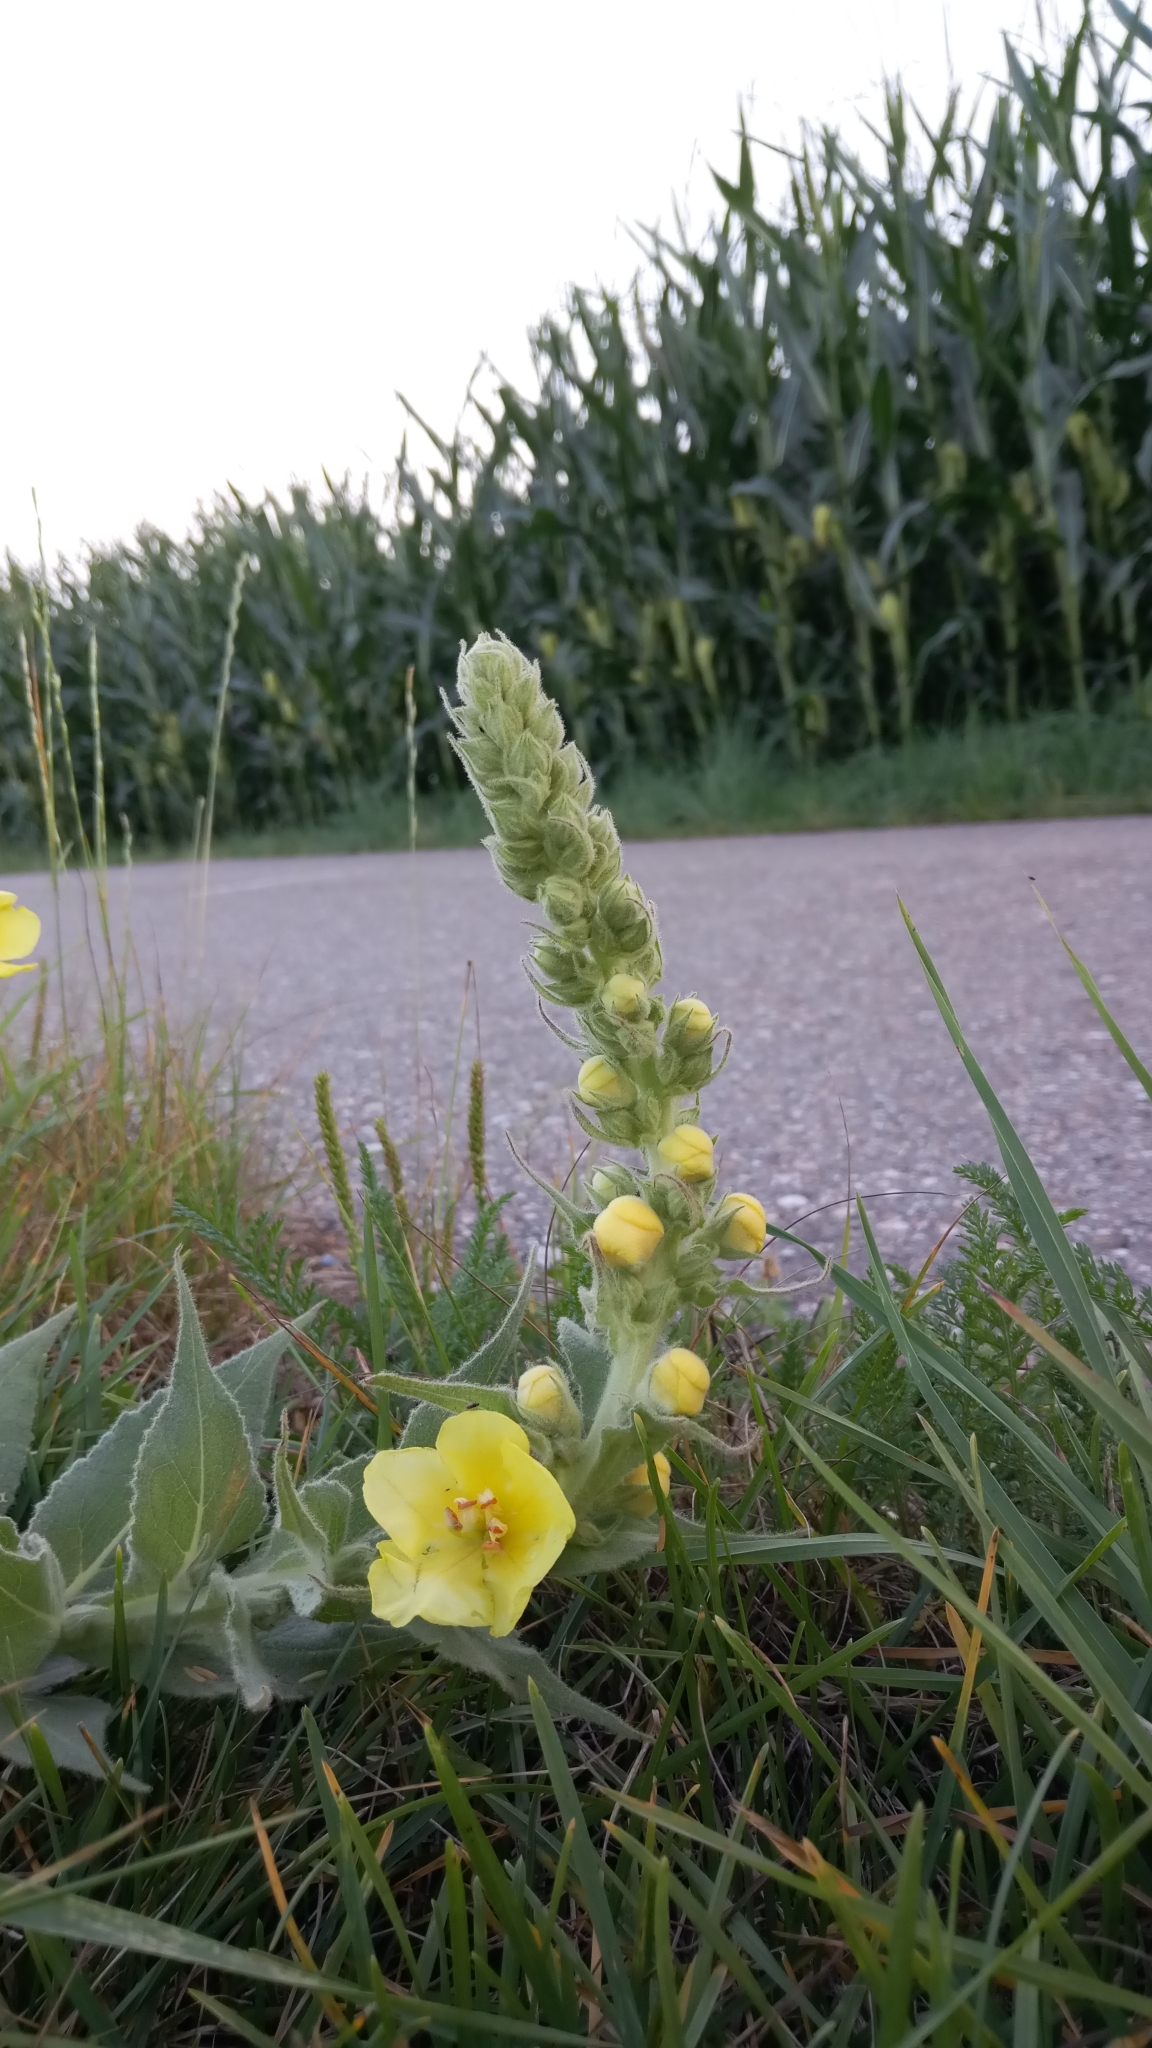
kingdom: Plantae
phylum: Tracheophyta
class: Magnoliopsida
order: Lamiales
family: Scrophulariaceae
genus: Verbascum
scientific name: Verbascum densiflorum
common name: Dense-flowered mullein
